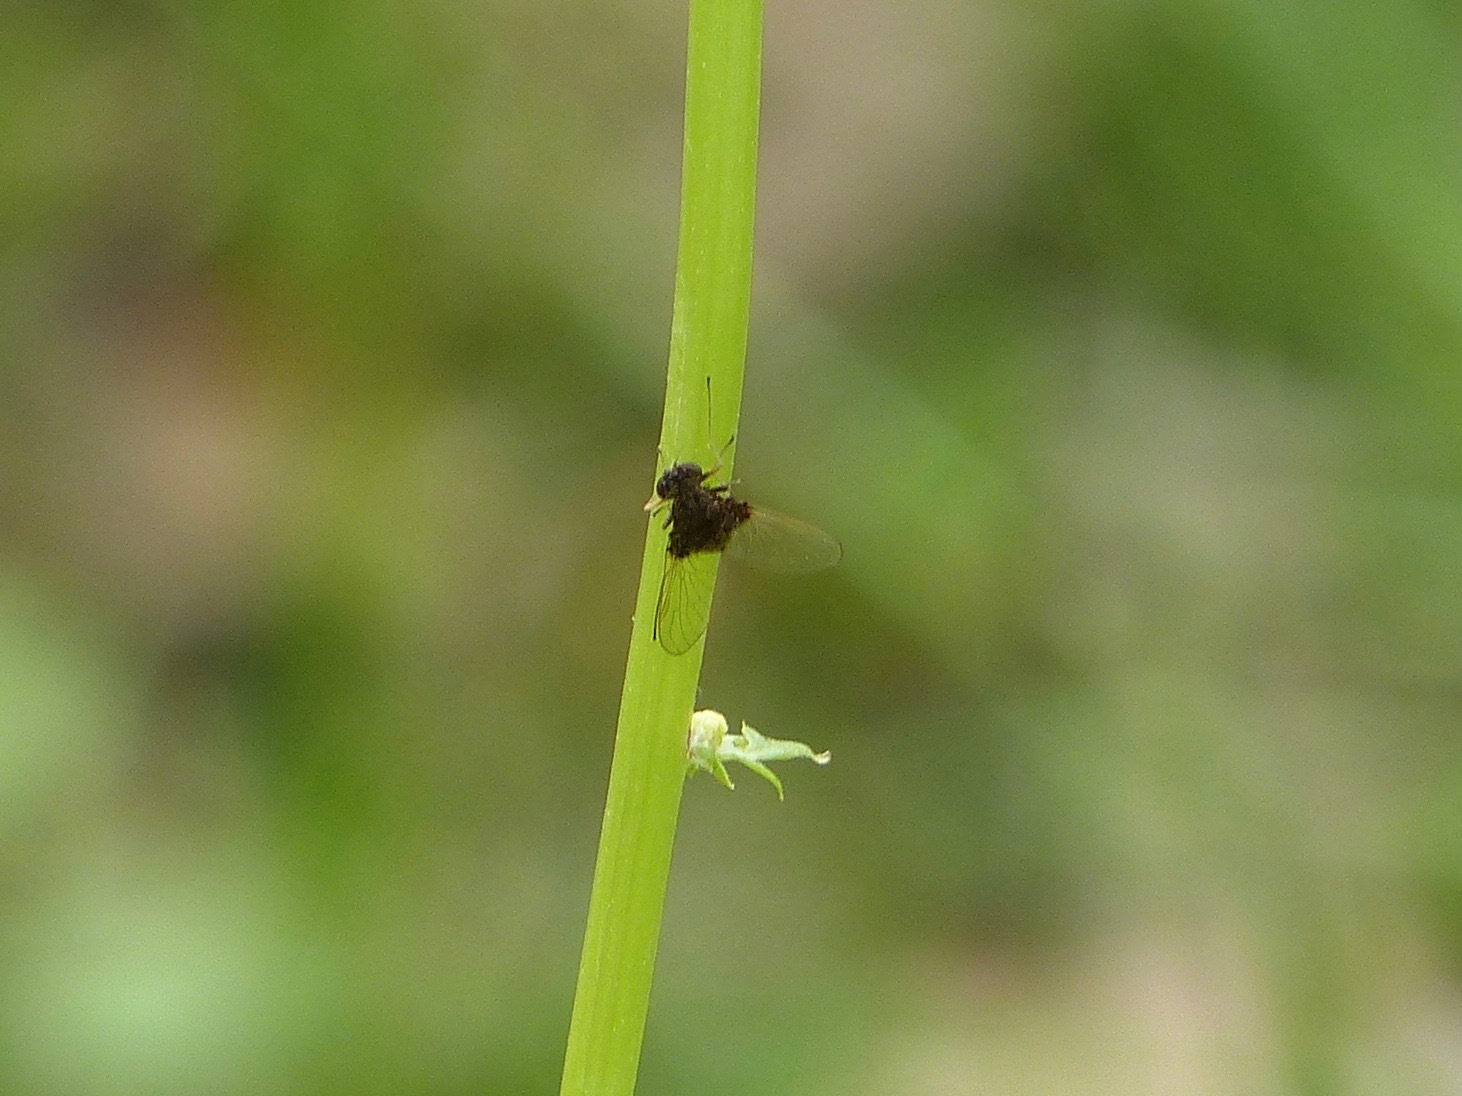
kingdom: Animalia
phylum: Arthropoda
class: Insecta
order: Diptera
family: Rhagionidae
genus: Chrysopilus
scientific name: Chrysopilus basilaris
